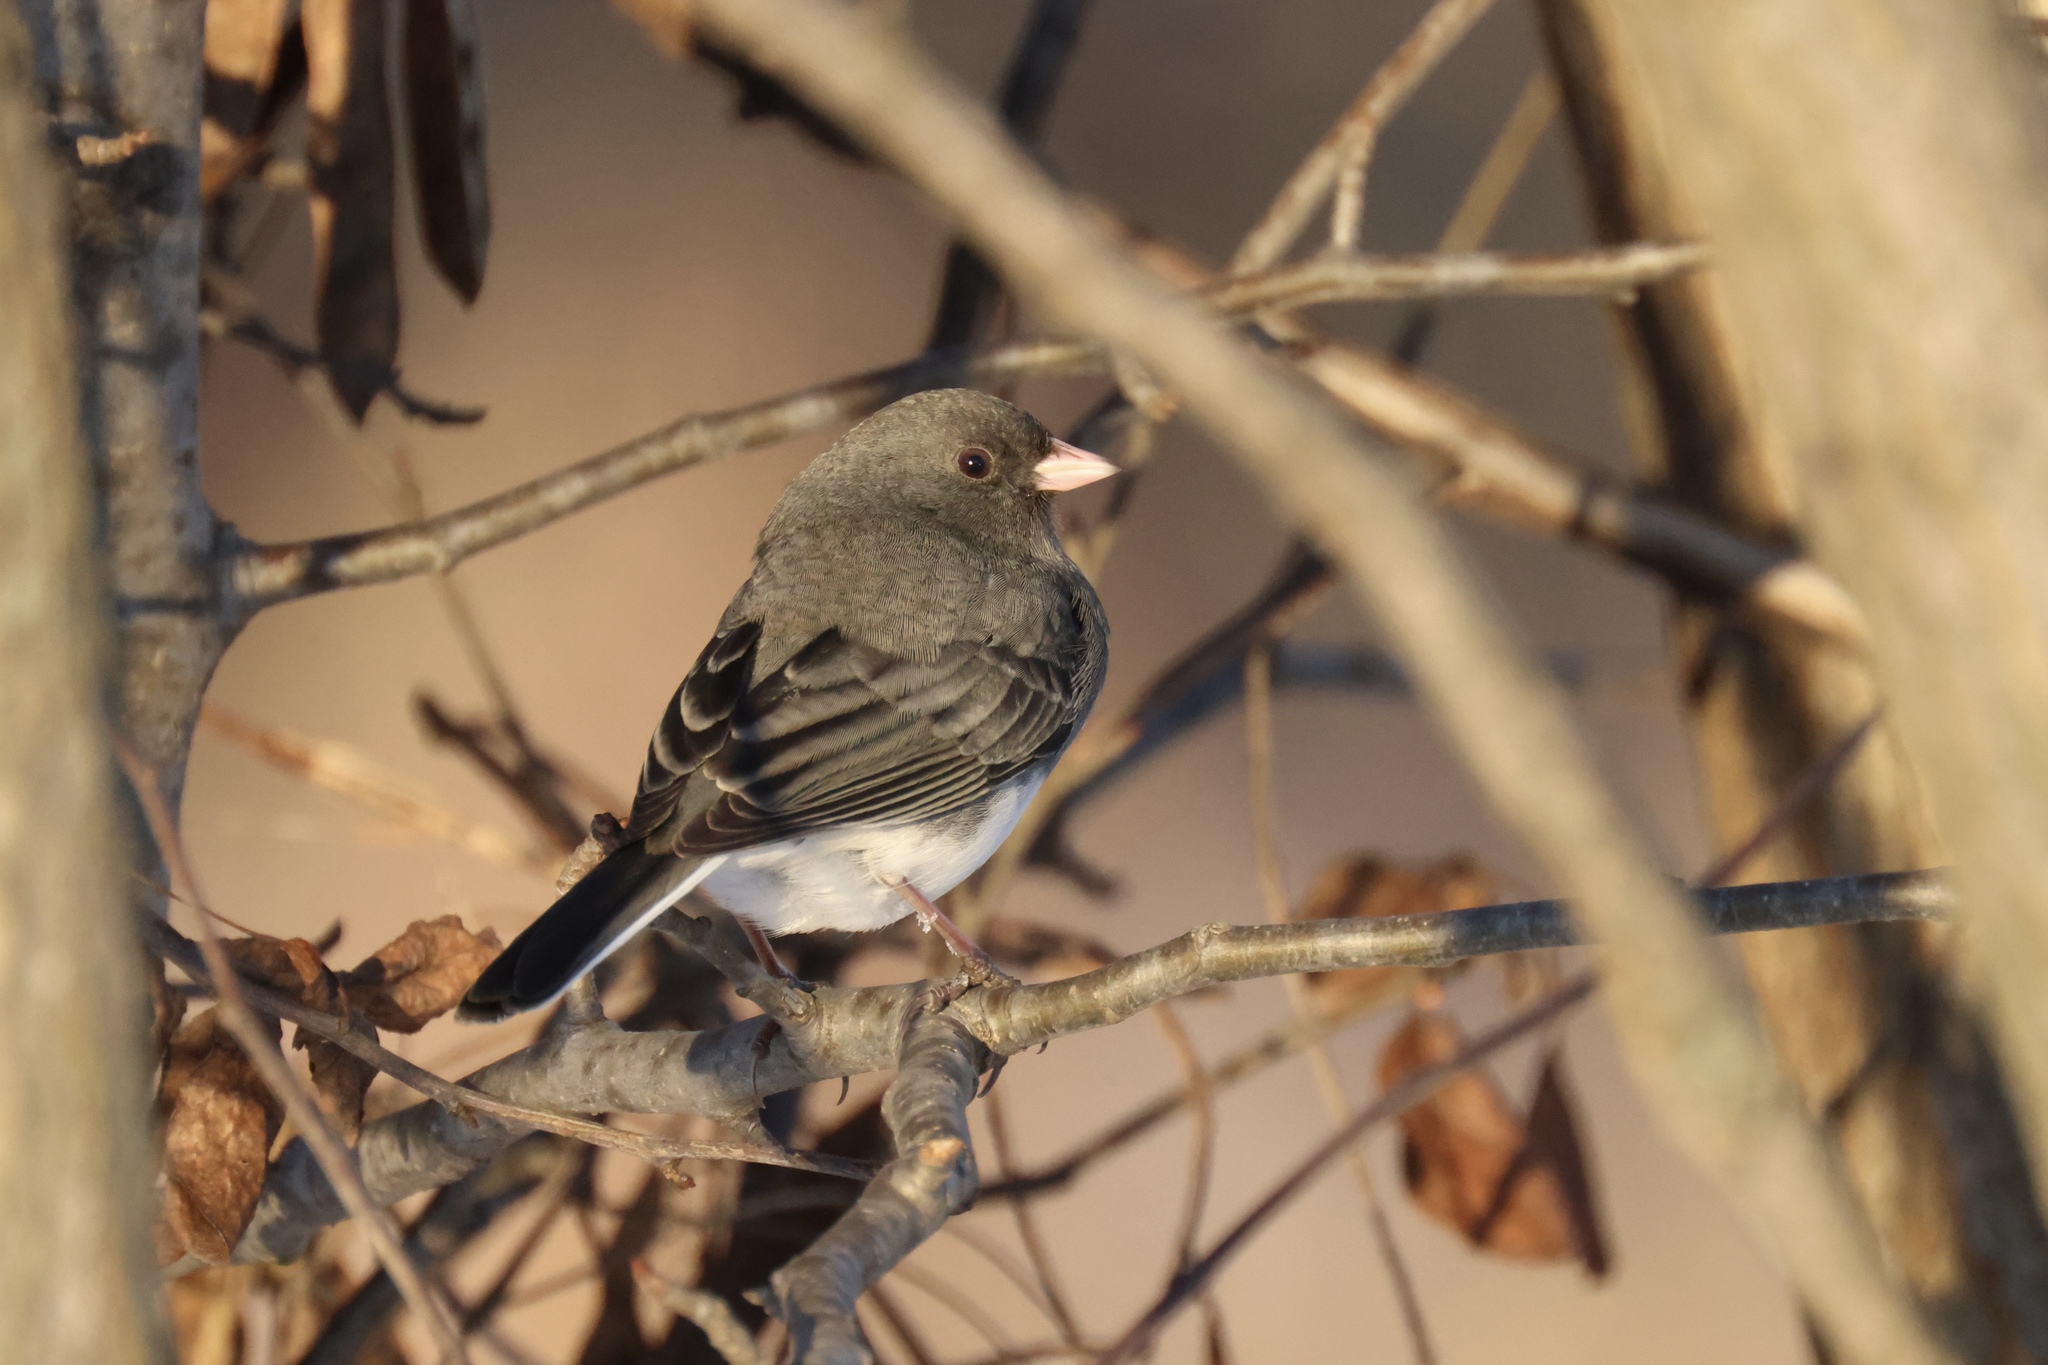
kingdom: Animalia
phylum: Chordata
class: Aves
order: Passeriformes
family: Passerellidae
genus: Junco
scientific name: Junco hyemalis
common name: Dark-eyed junco
